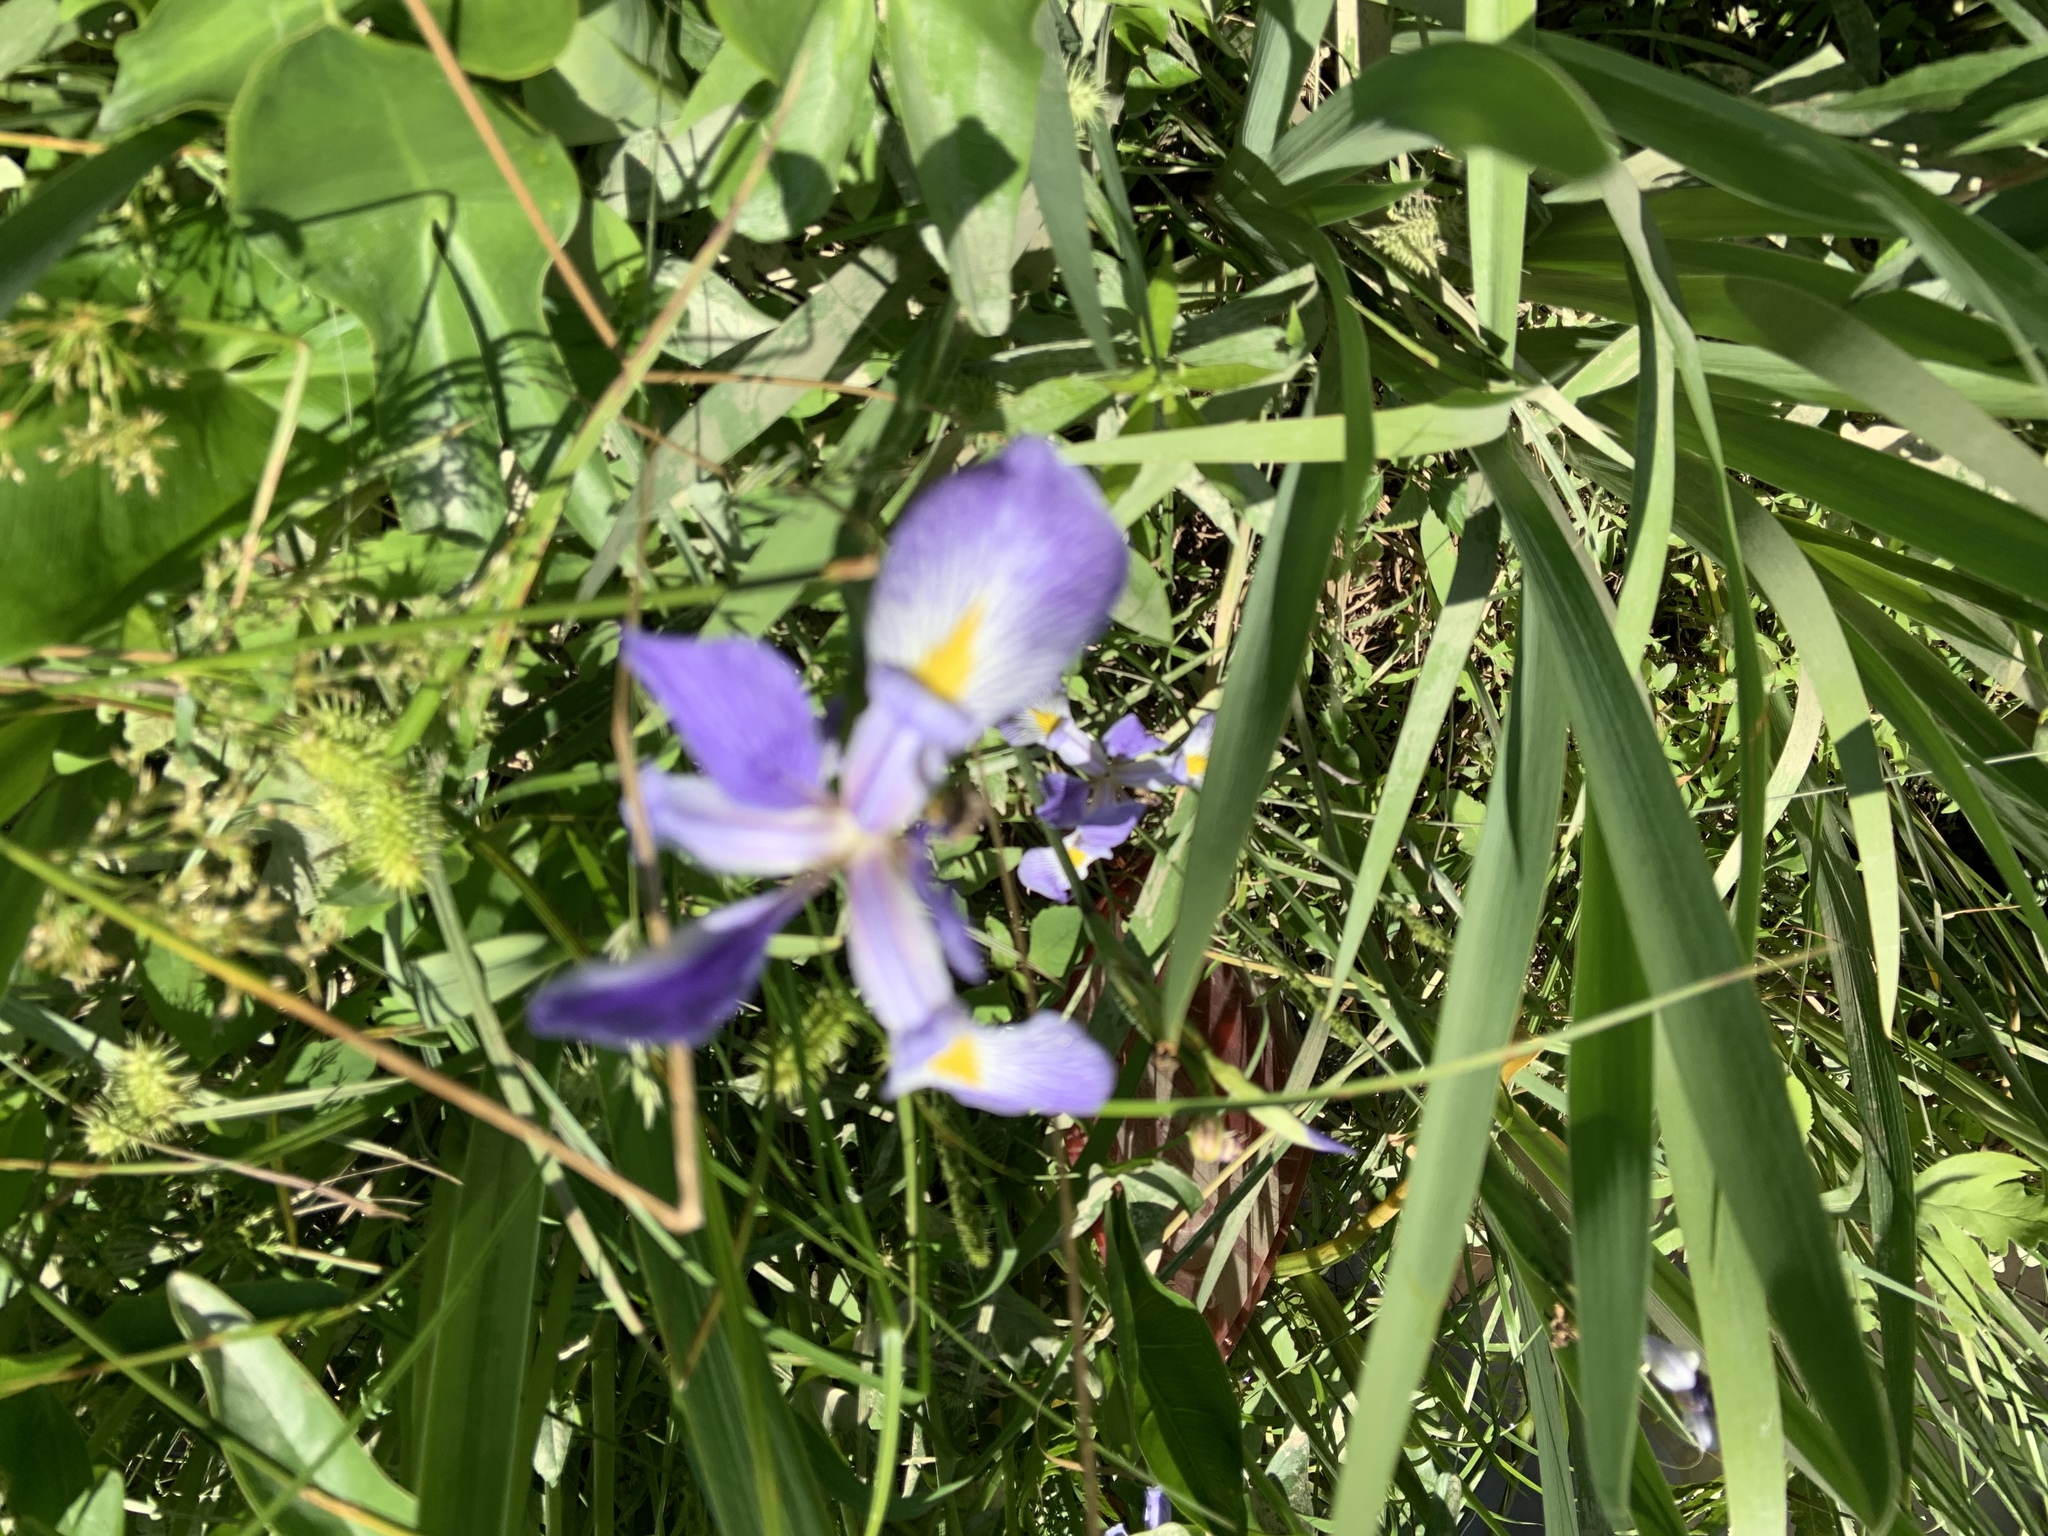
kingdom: Plantae
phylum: Tracheophyta
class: Liliopsida
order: Asparagales
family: Iridaceae
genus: Iris
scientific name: Iris virginica
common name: Southern blue flag
